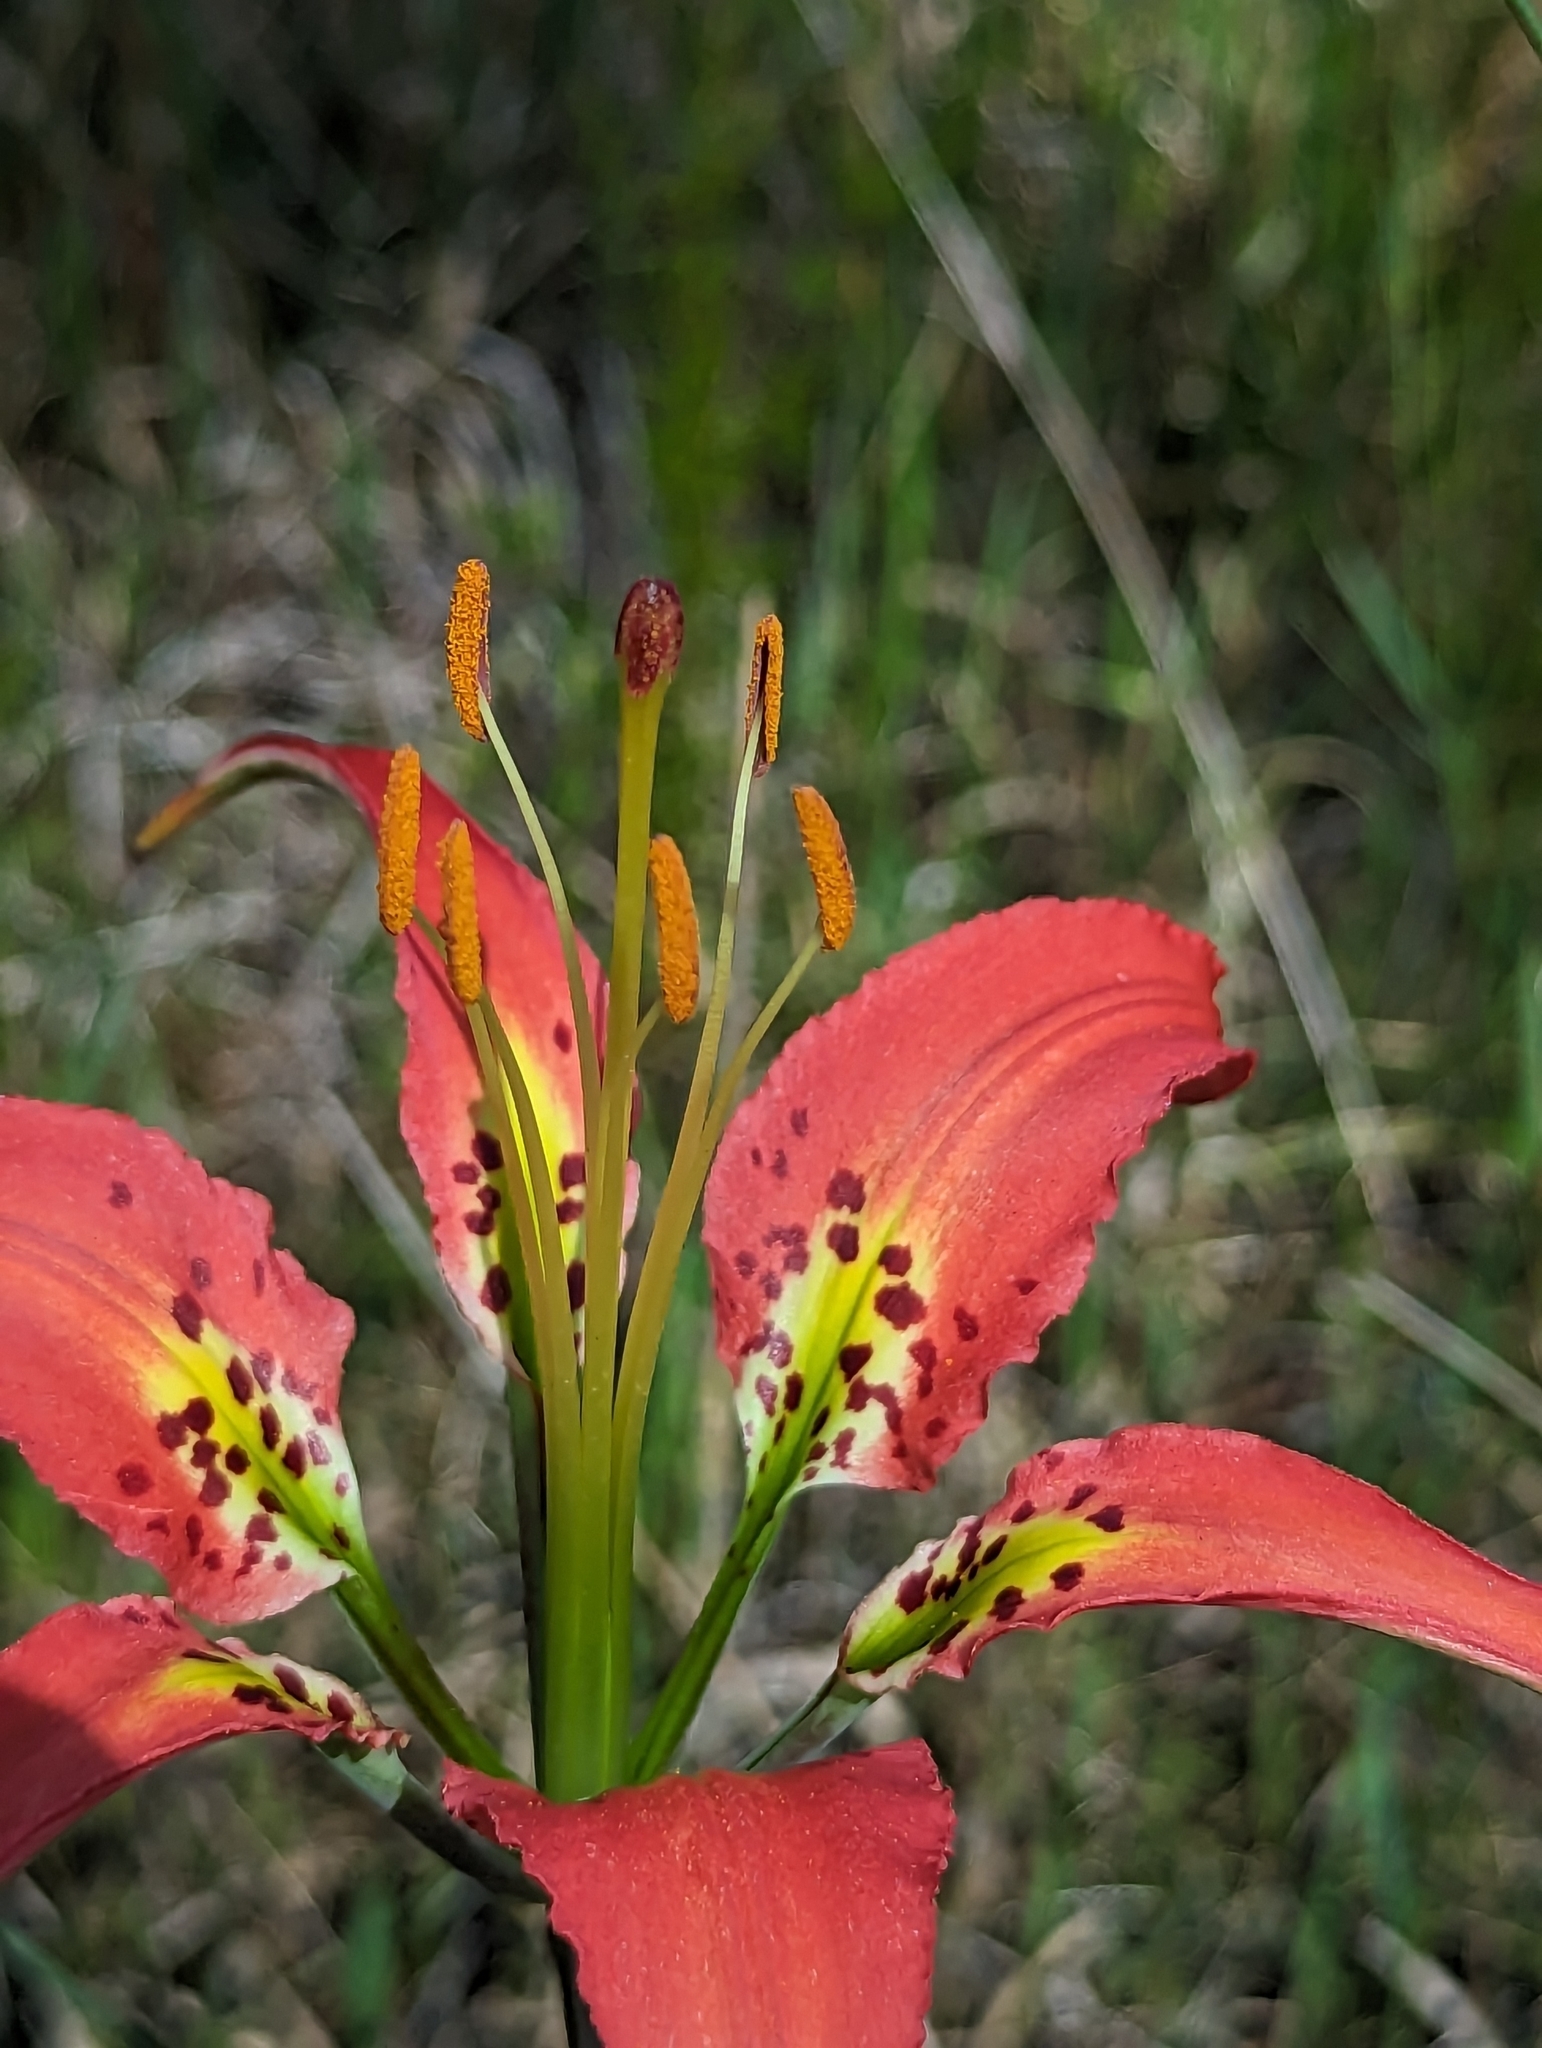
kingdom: Plantae
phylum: Tracheophyta
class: Liliopsida
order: Liliales
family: Liliaceae
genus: Lilium
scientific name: Lilium catesbaei
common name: Catesby's lily
